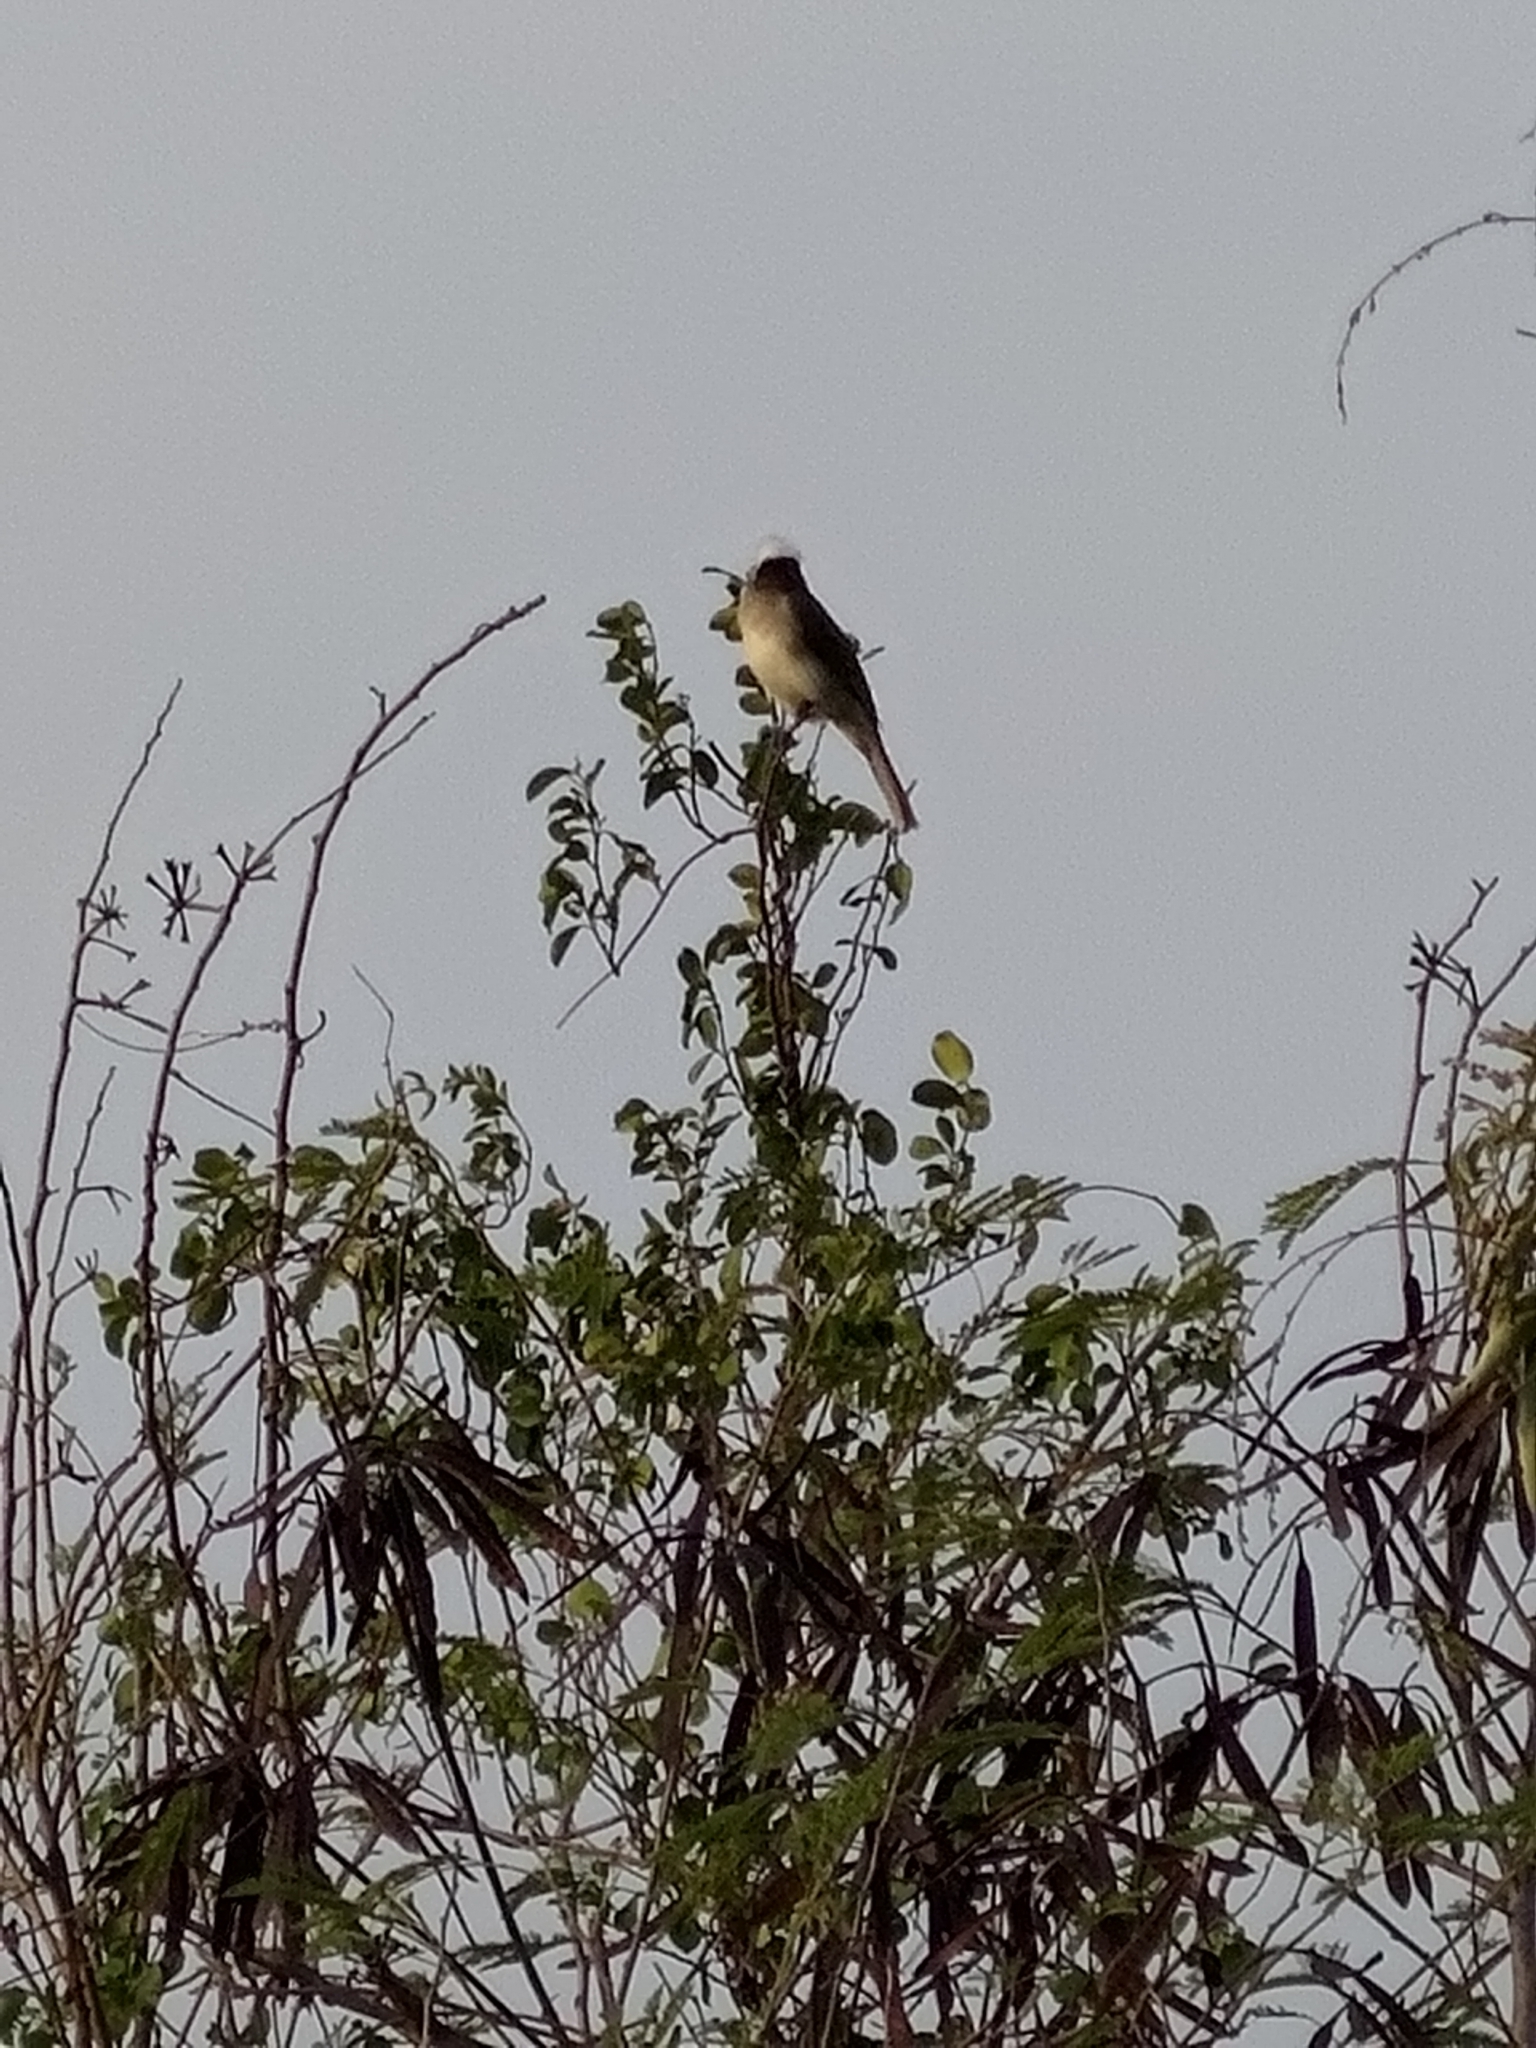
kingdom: Animalia
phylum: Chordata
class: Aves
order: Passeriformes
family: Pycnonotidae
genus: Pycnonotus
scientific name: Pycnonotus sinensis
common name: Light-vented bulbul
